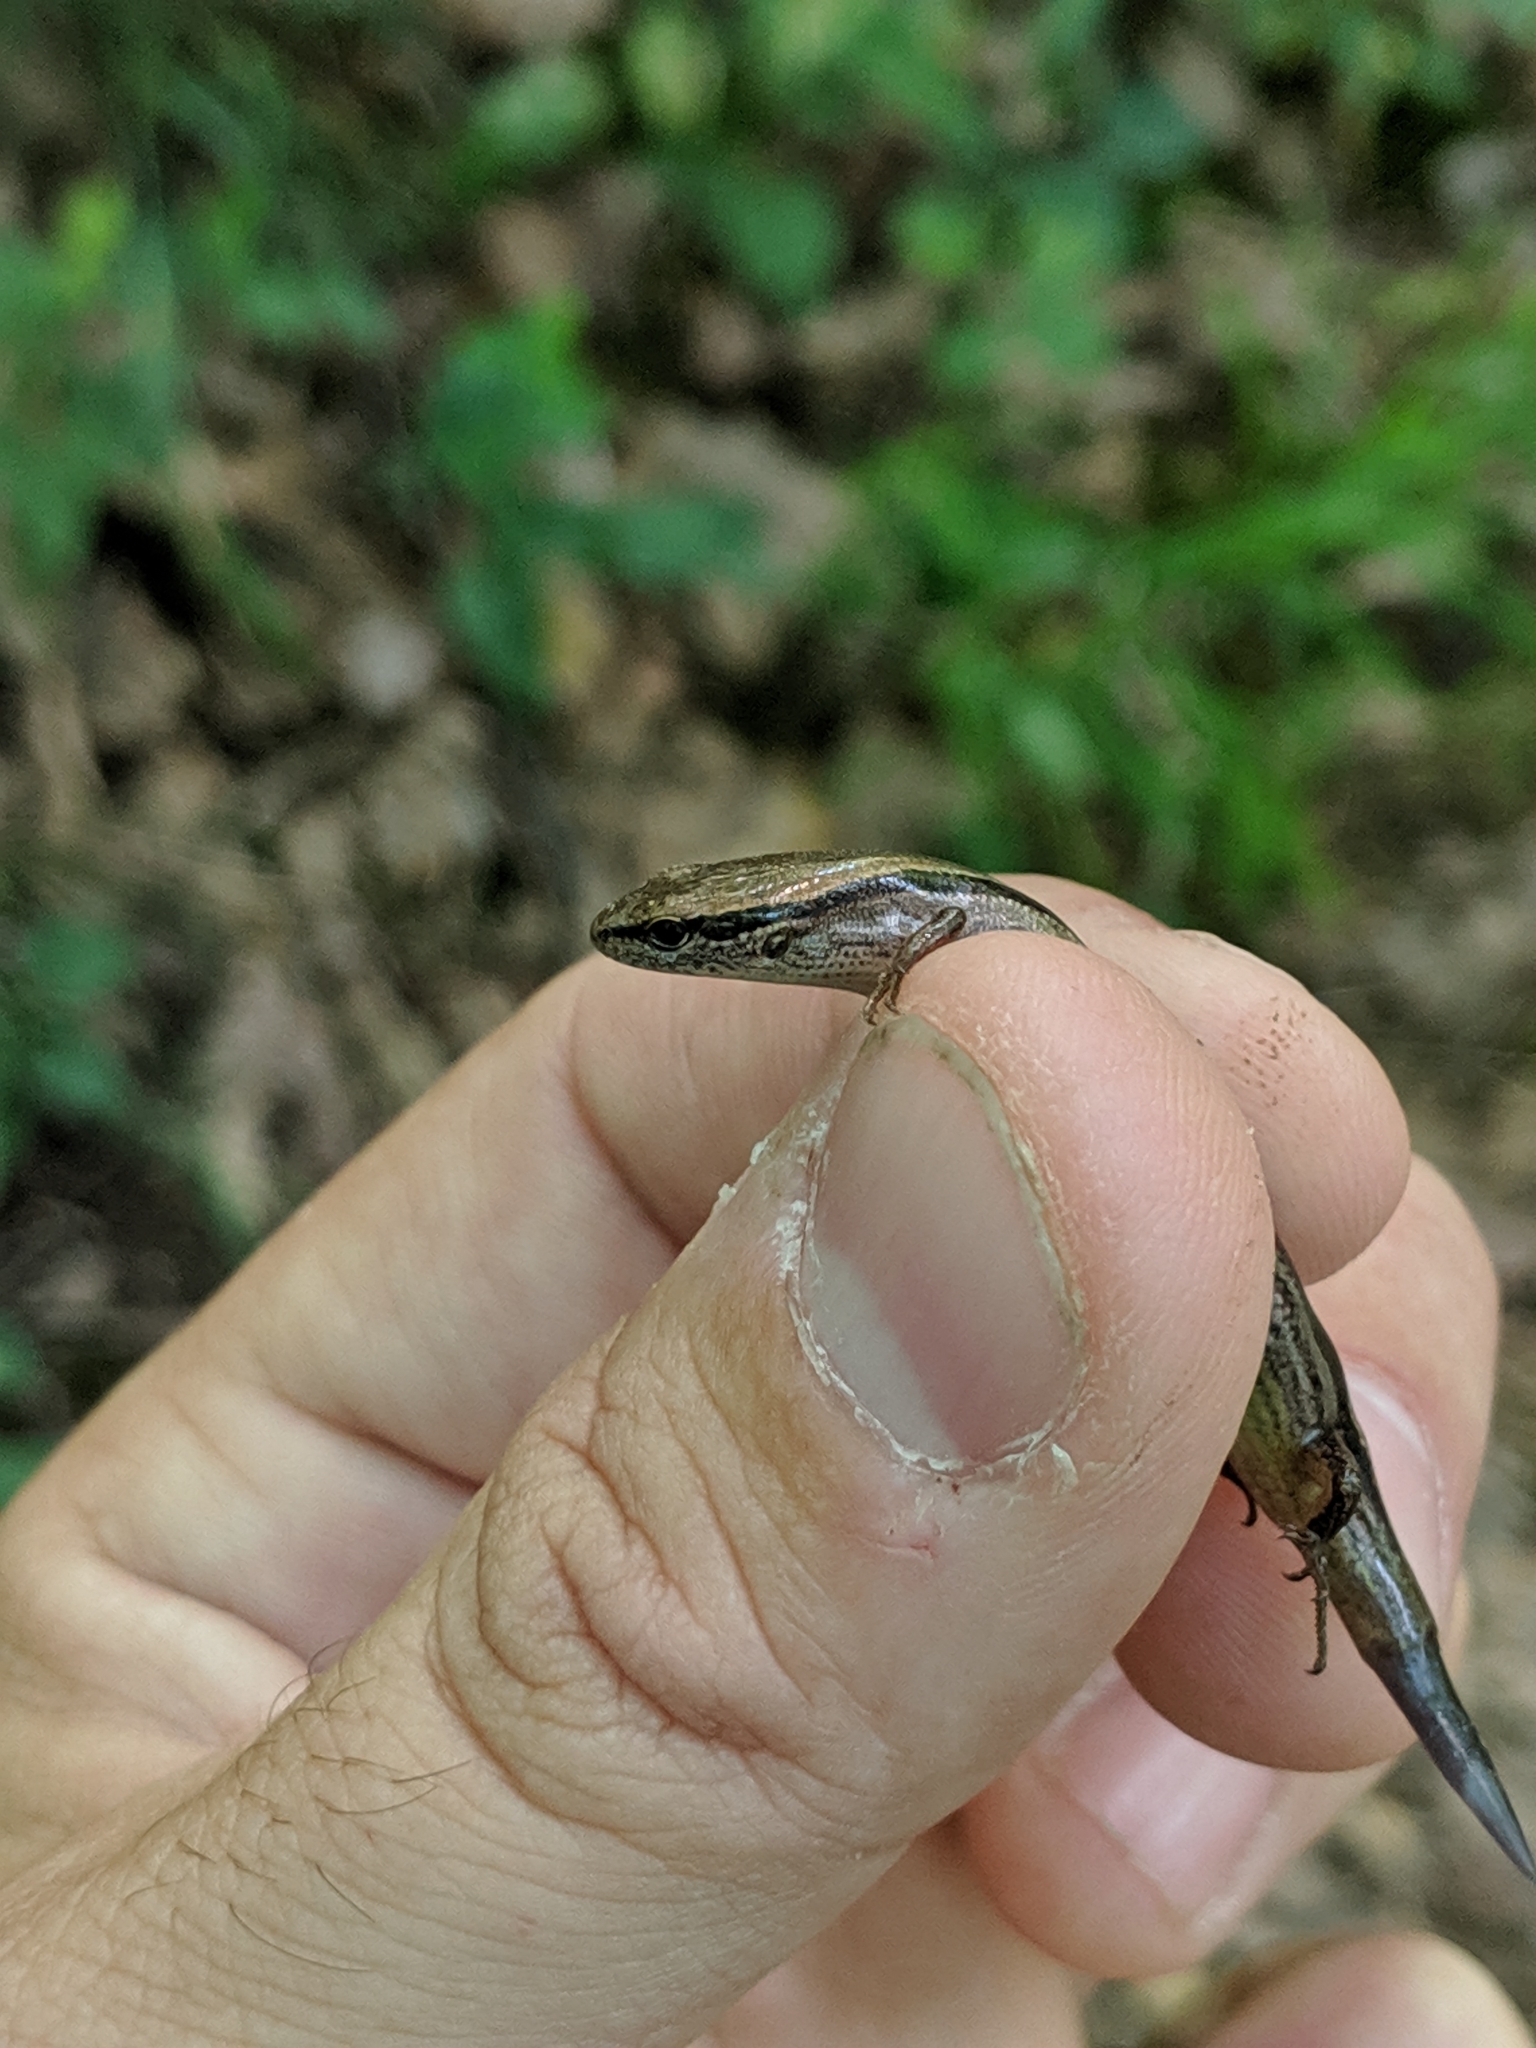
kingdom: Animalia
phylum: Chordata
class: Squamata
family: Scincidae
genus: Scincella
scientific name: Scincella lateralis
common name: Ground skink
